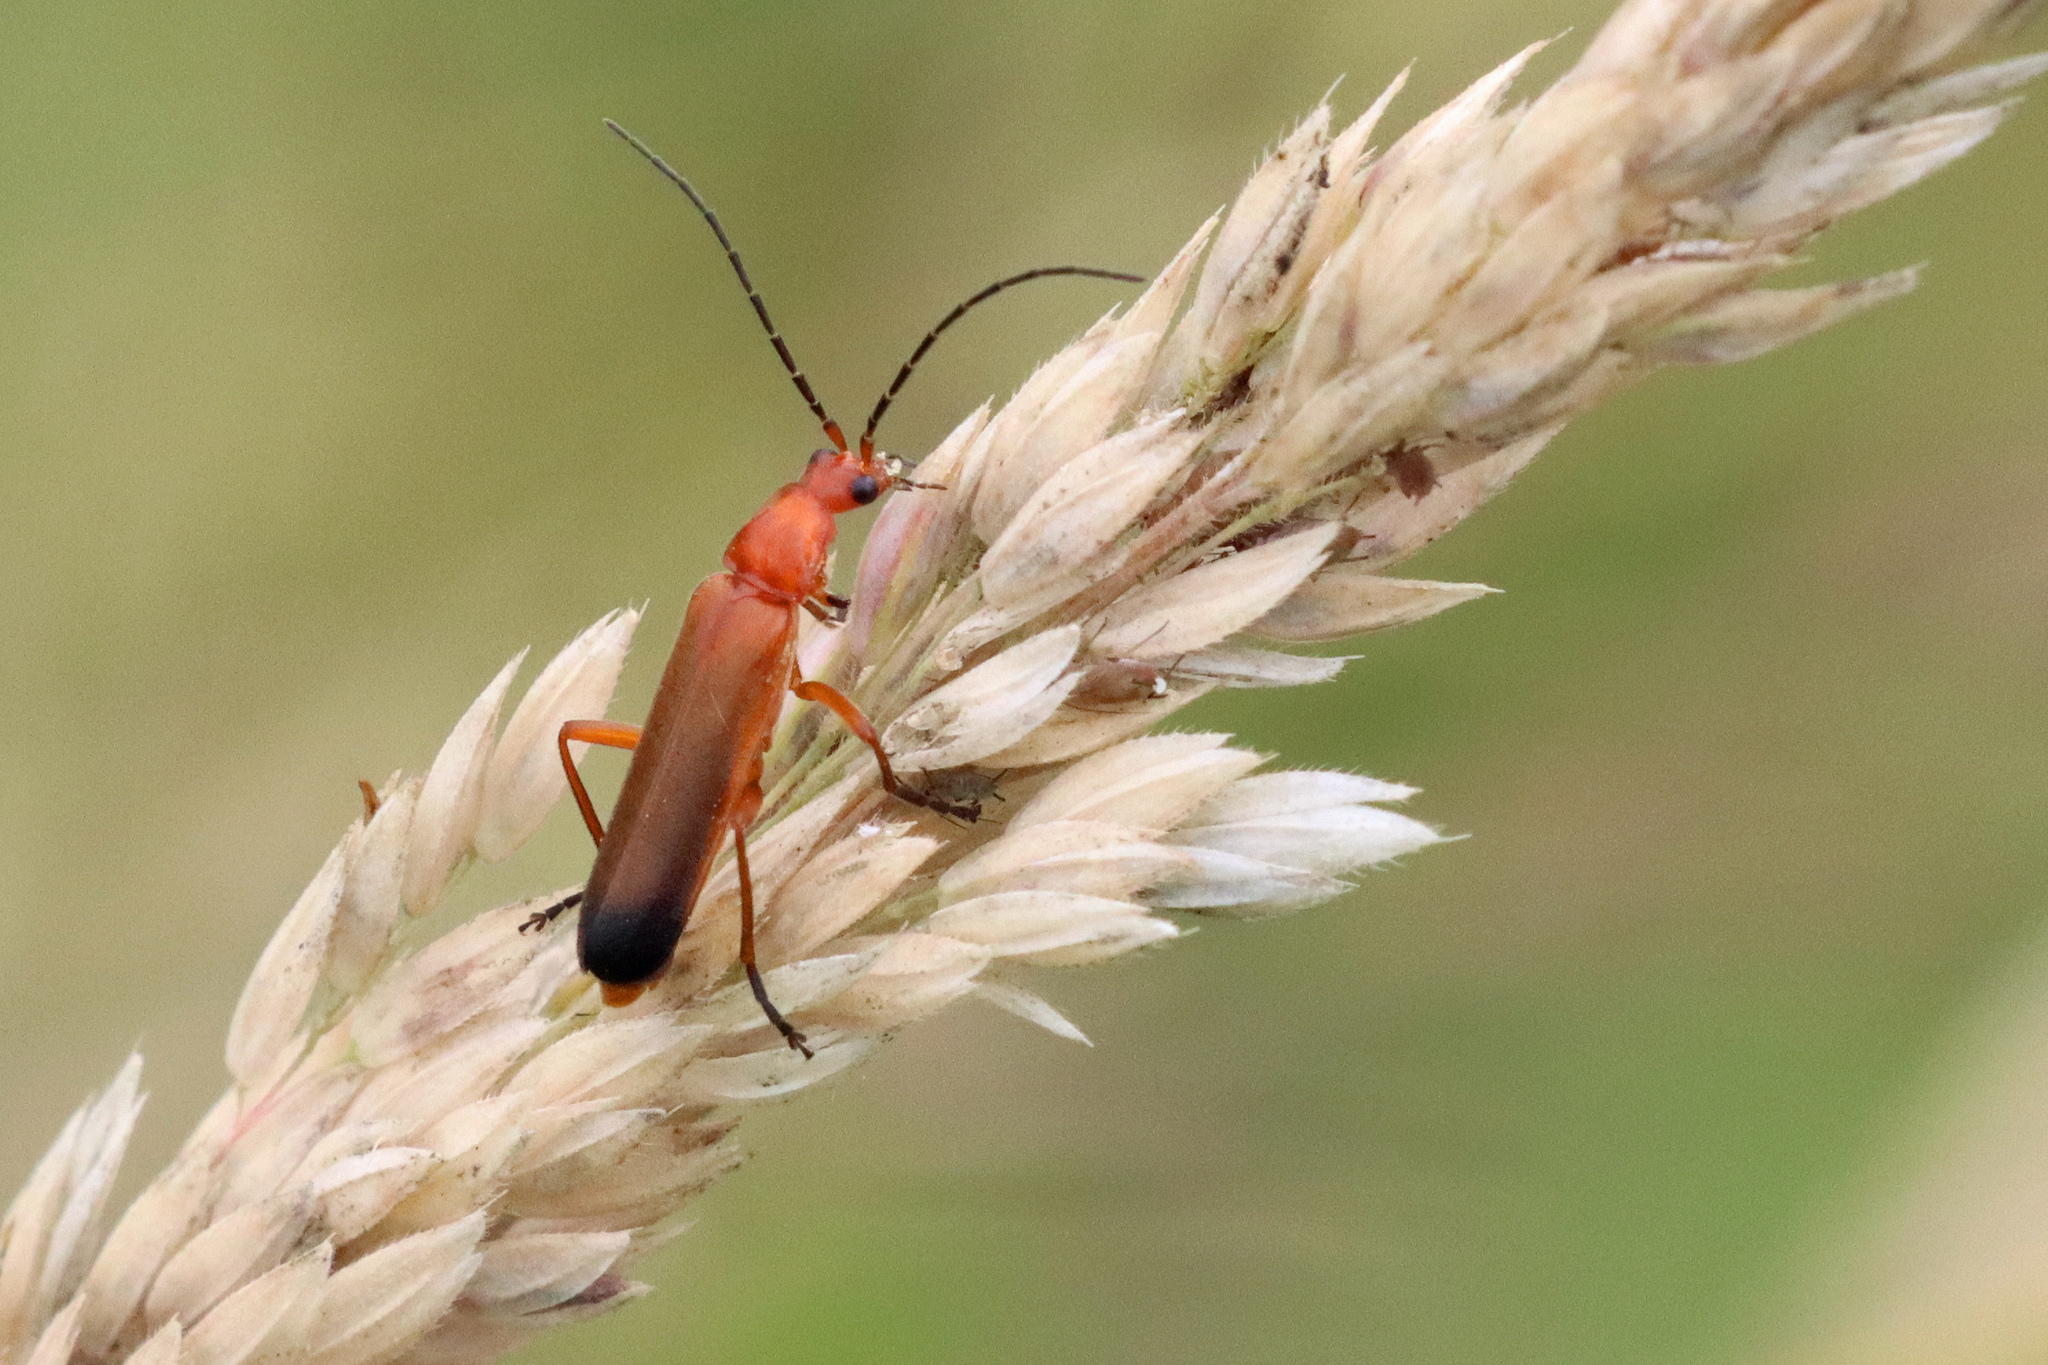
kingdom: Animalia
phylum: Arthropoda
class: Insecta
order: Coleoptera
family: Cantharidae
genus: Rhagonycha
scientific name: Rhagonycha fulva
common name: Common red soldier beetle
